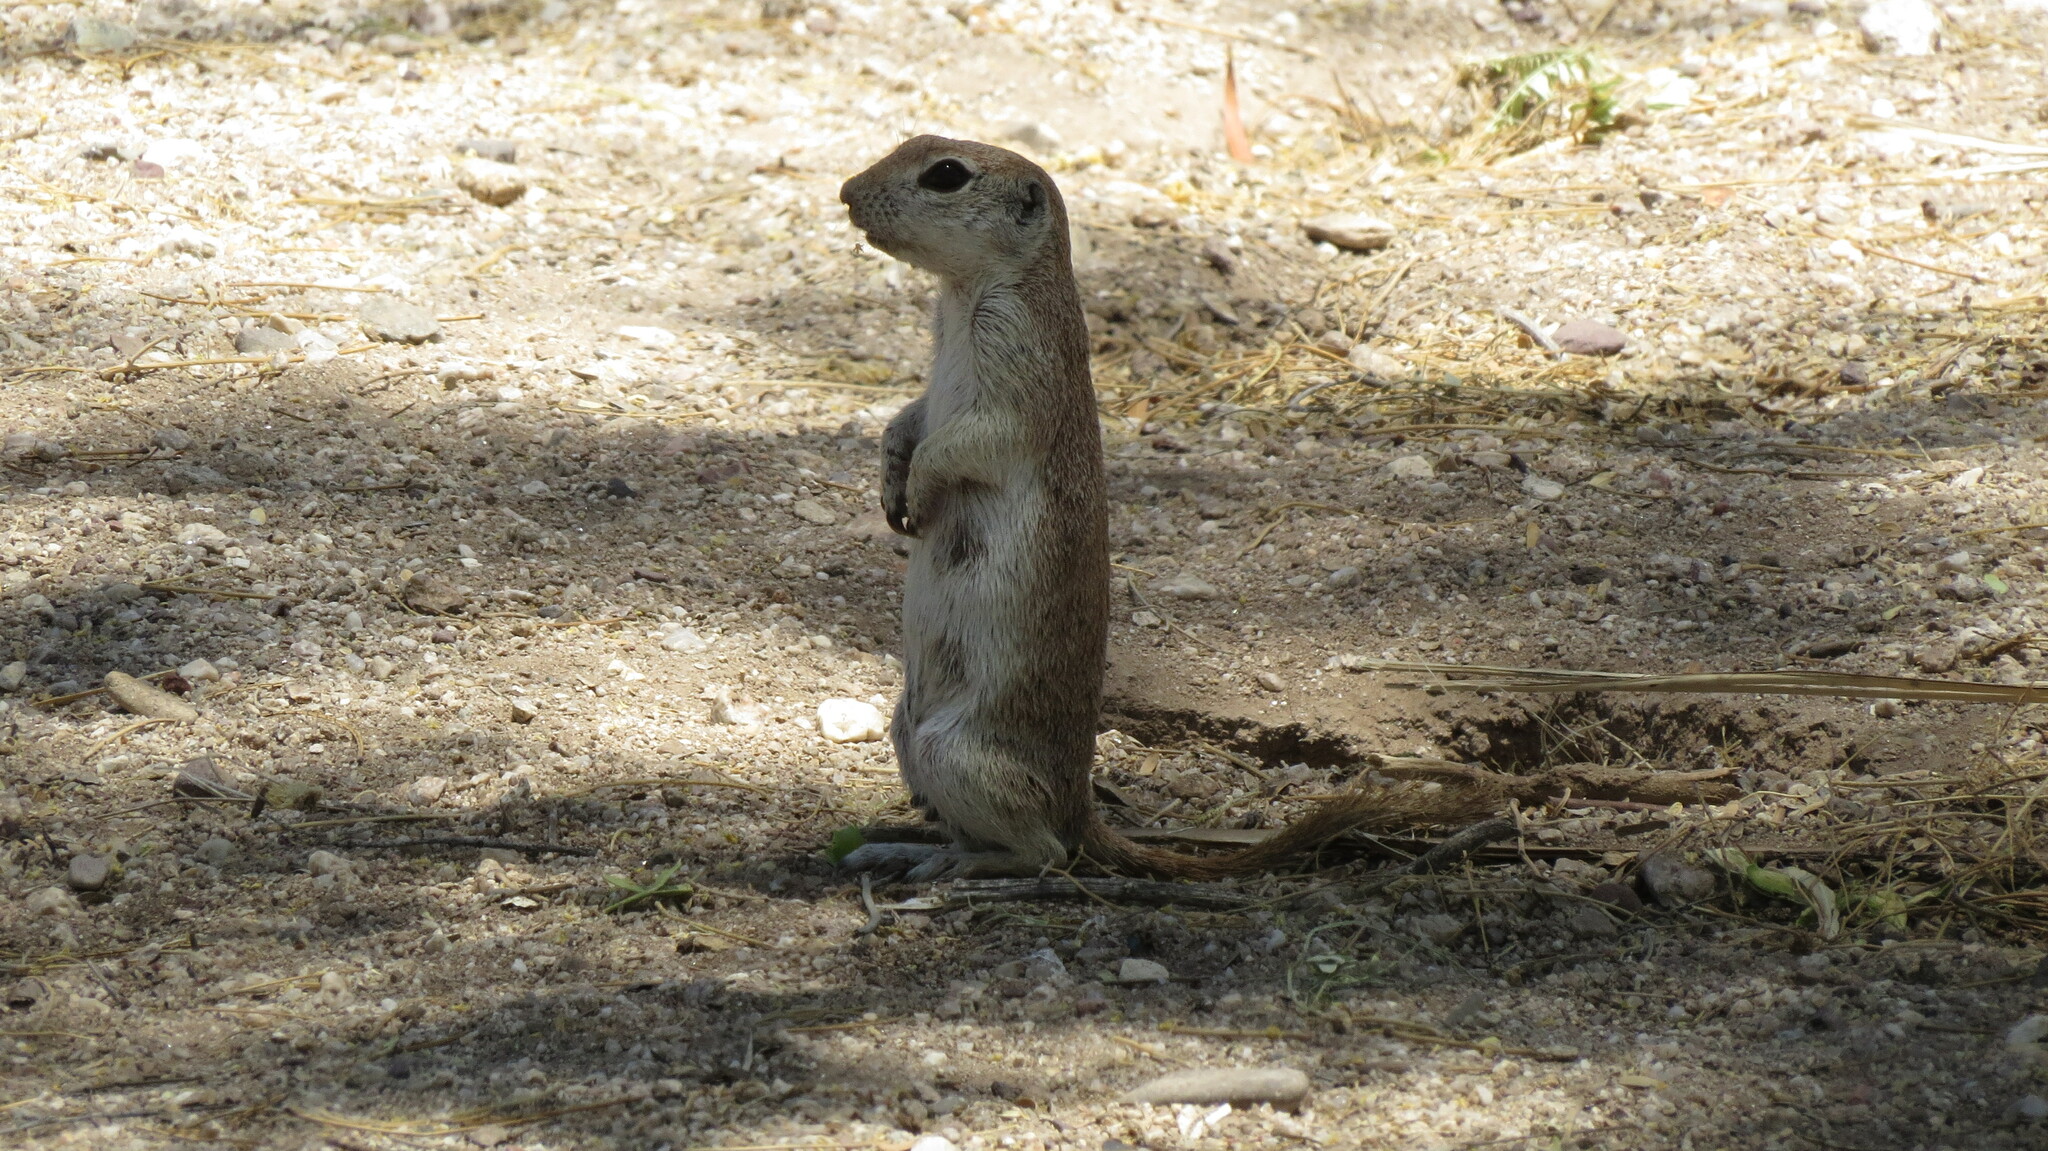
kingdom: Animalia
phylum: Chordata
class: Mammalia
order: Rodentia
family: Sciuridae
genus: Xerospermophilus
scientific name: Xerospermophilus tereticaudus
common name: Round-tailed ground squirrel
